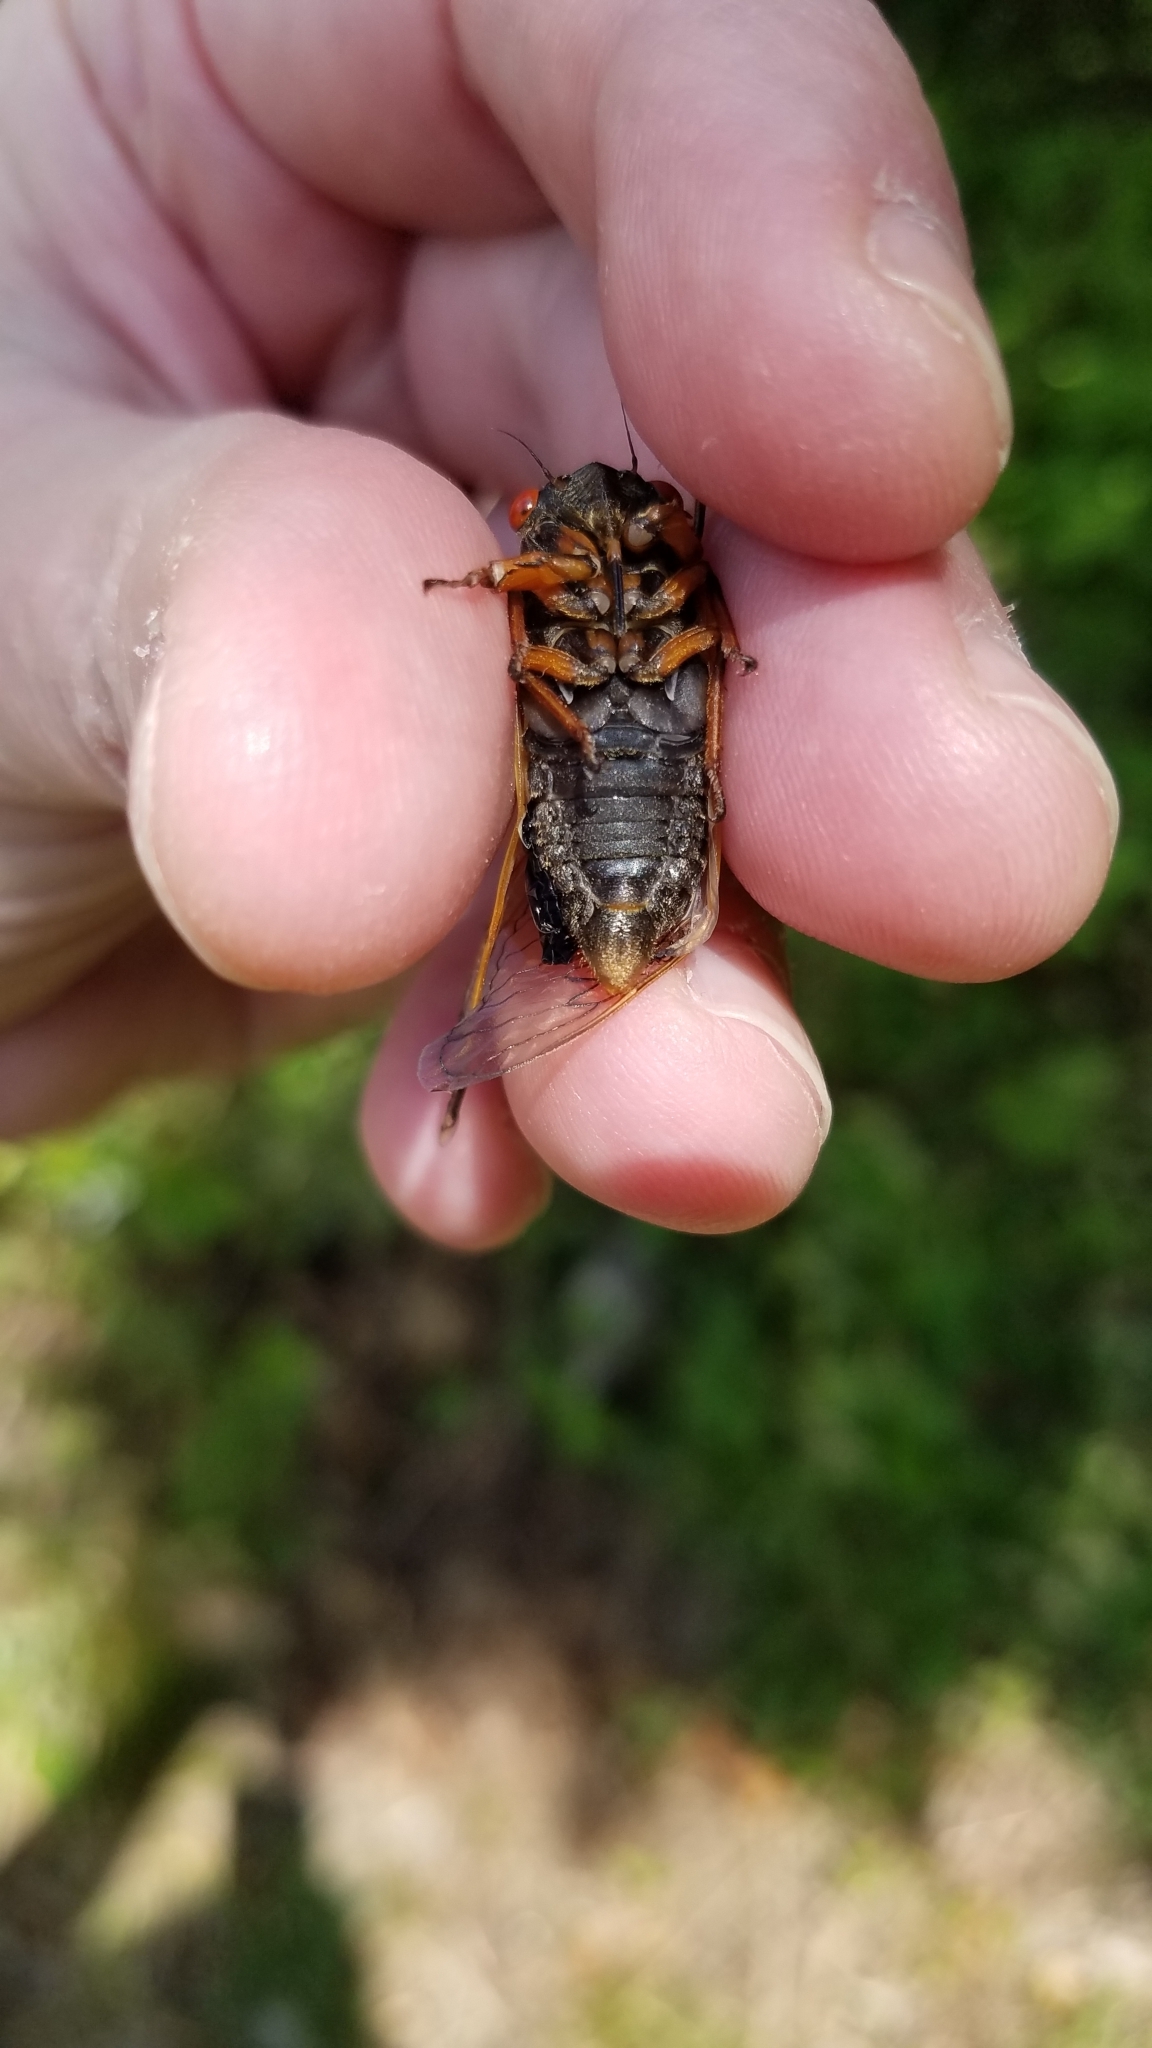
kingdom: Animalia
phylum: Arthropoda
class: Insecta
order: Hemiptera
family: Cicadidae
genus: Magicicada
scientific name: Magicicada cassini
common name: Cassin's 17-year cicada
